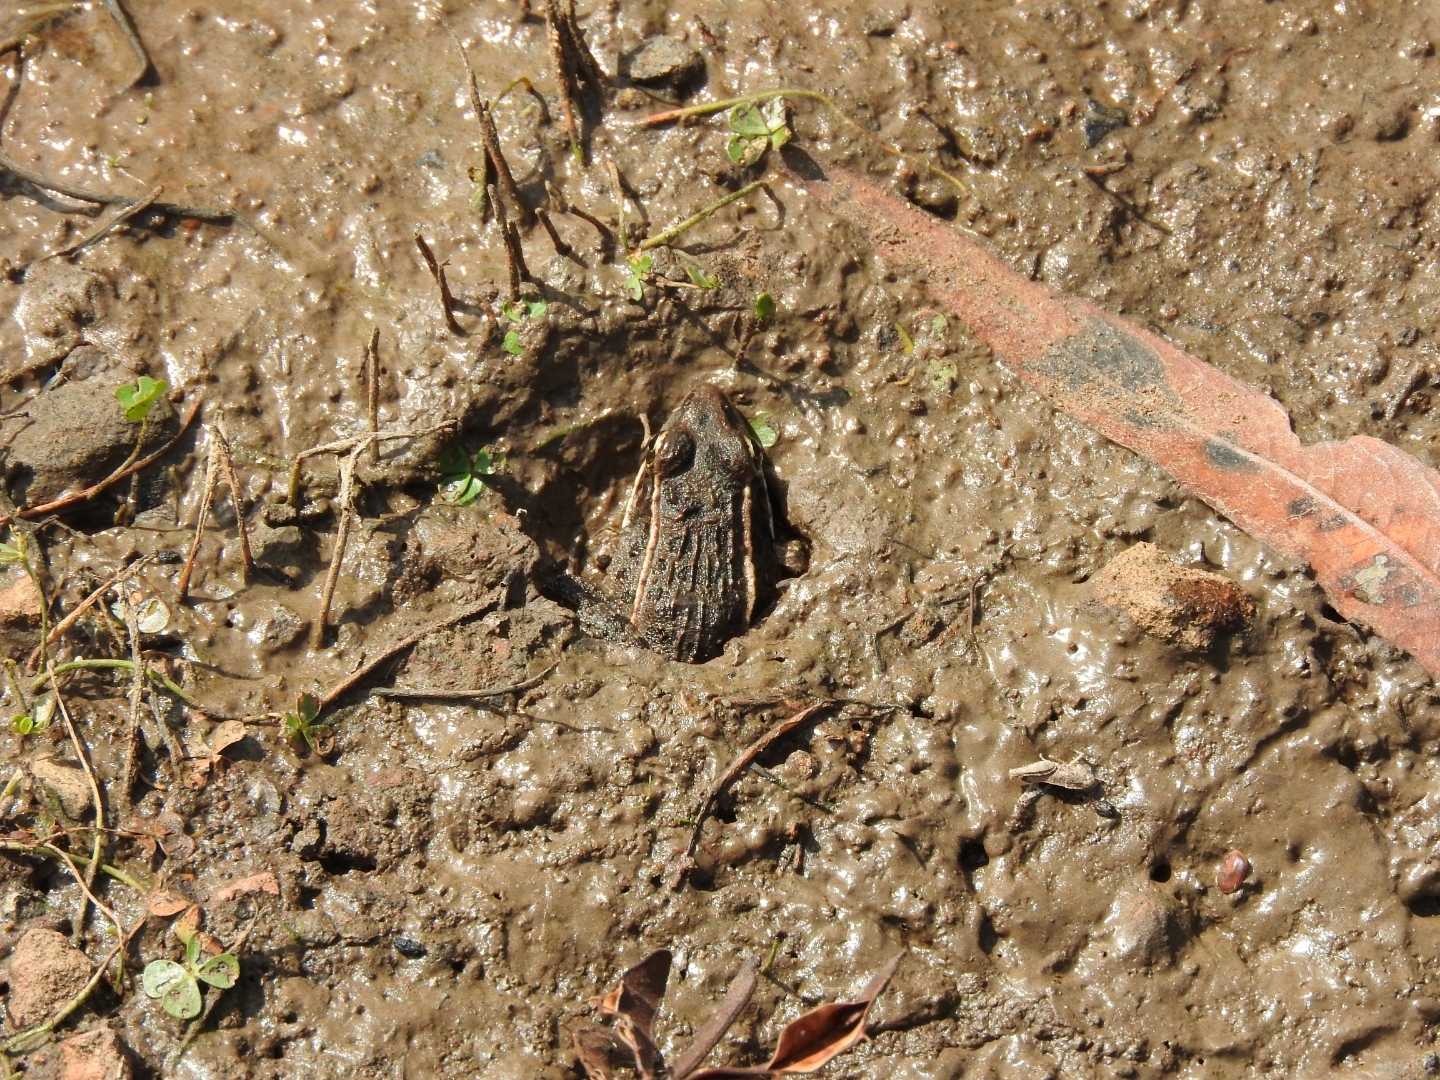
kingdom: Animalia
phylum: Chordata
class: Amphibia
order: Anura
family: Ranidae
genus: Lithobates
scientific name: Lithobates montezumae
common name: Montezuma leopard frog
